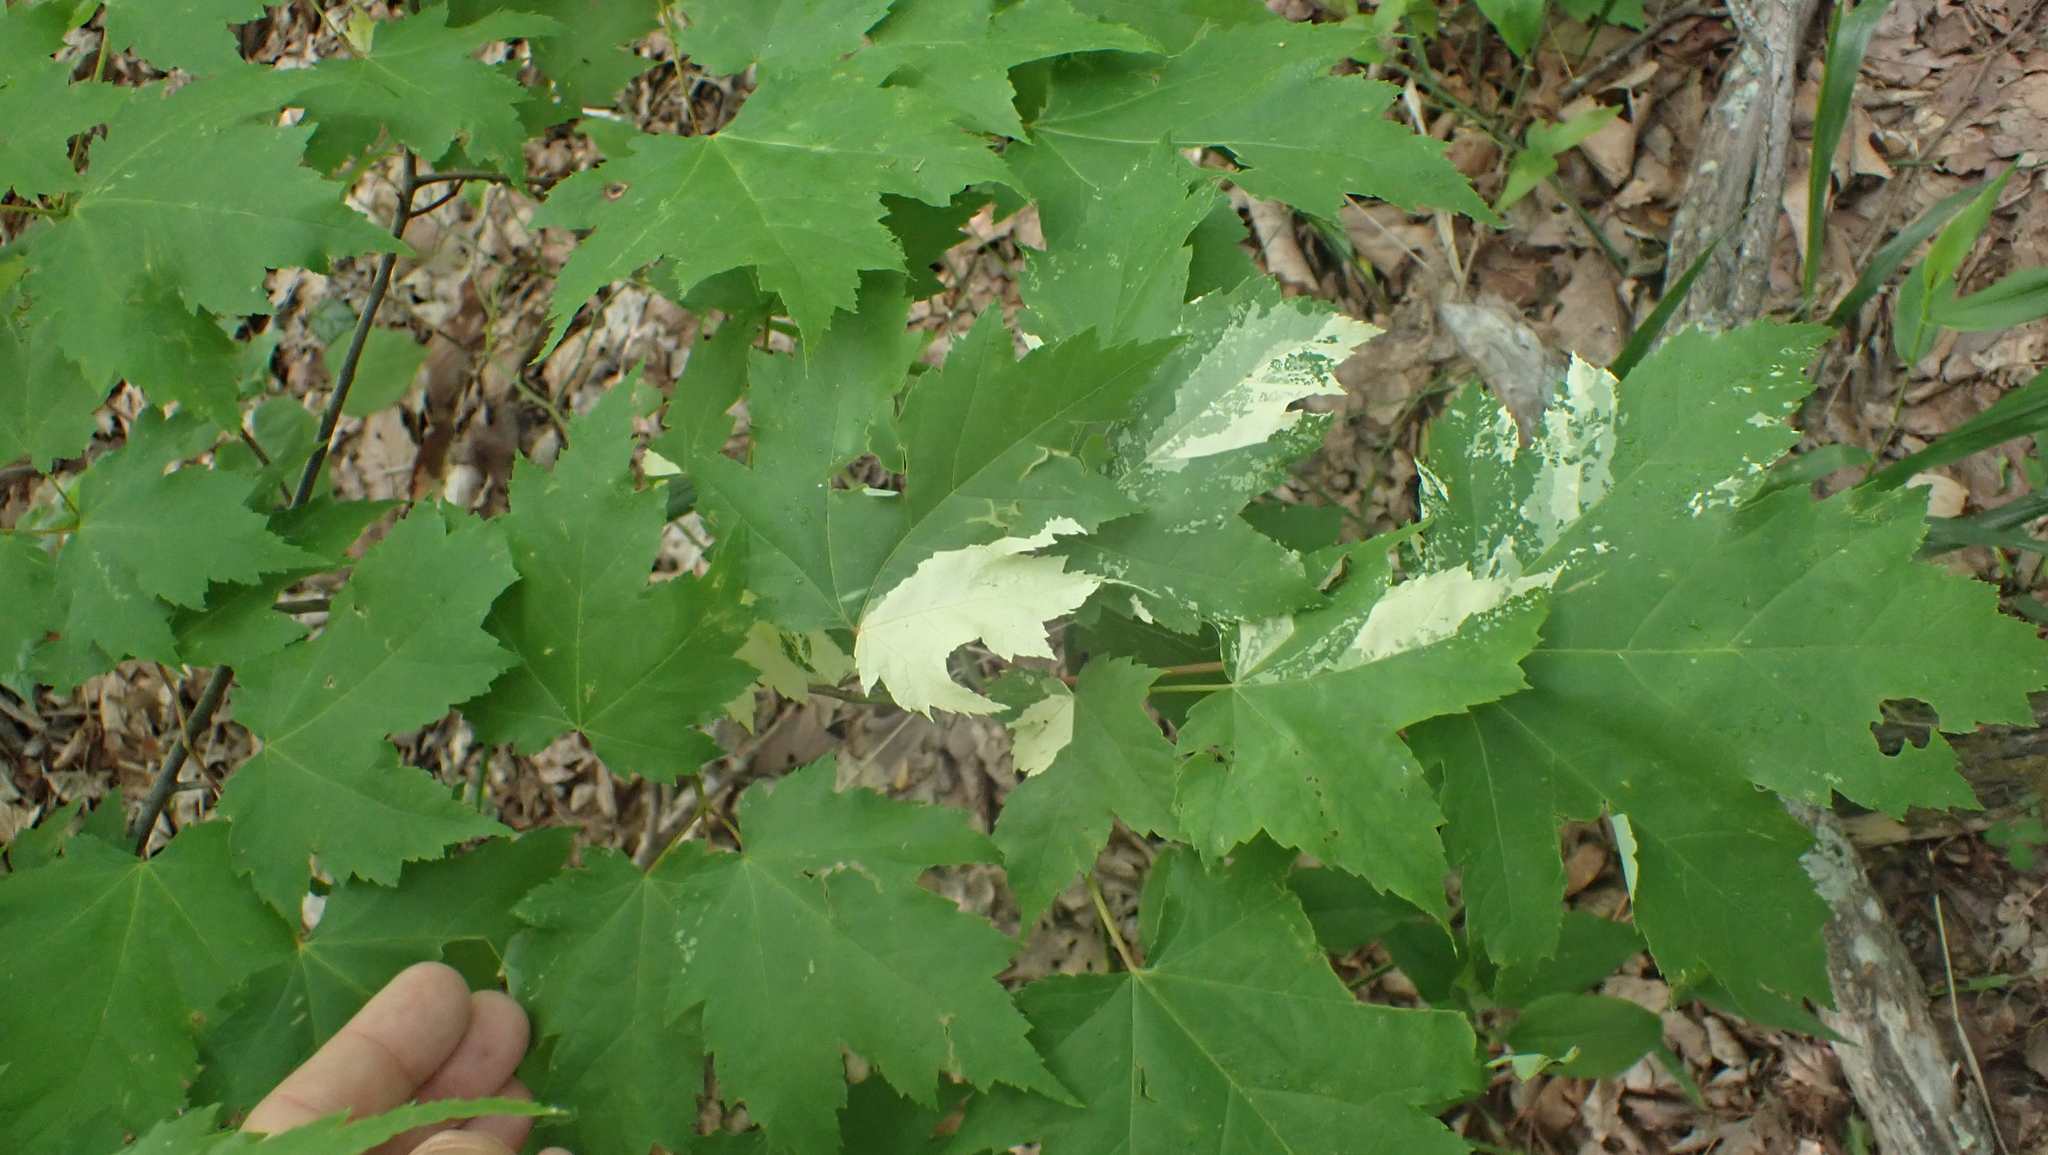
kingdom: Plantae
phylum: Tracheophyta
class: Magnoliopsida
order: Sapindales
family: Sapindaceae
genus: Acer
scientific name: Acer rubrum
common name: Red maple
